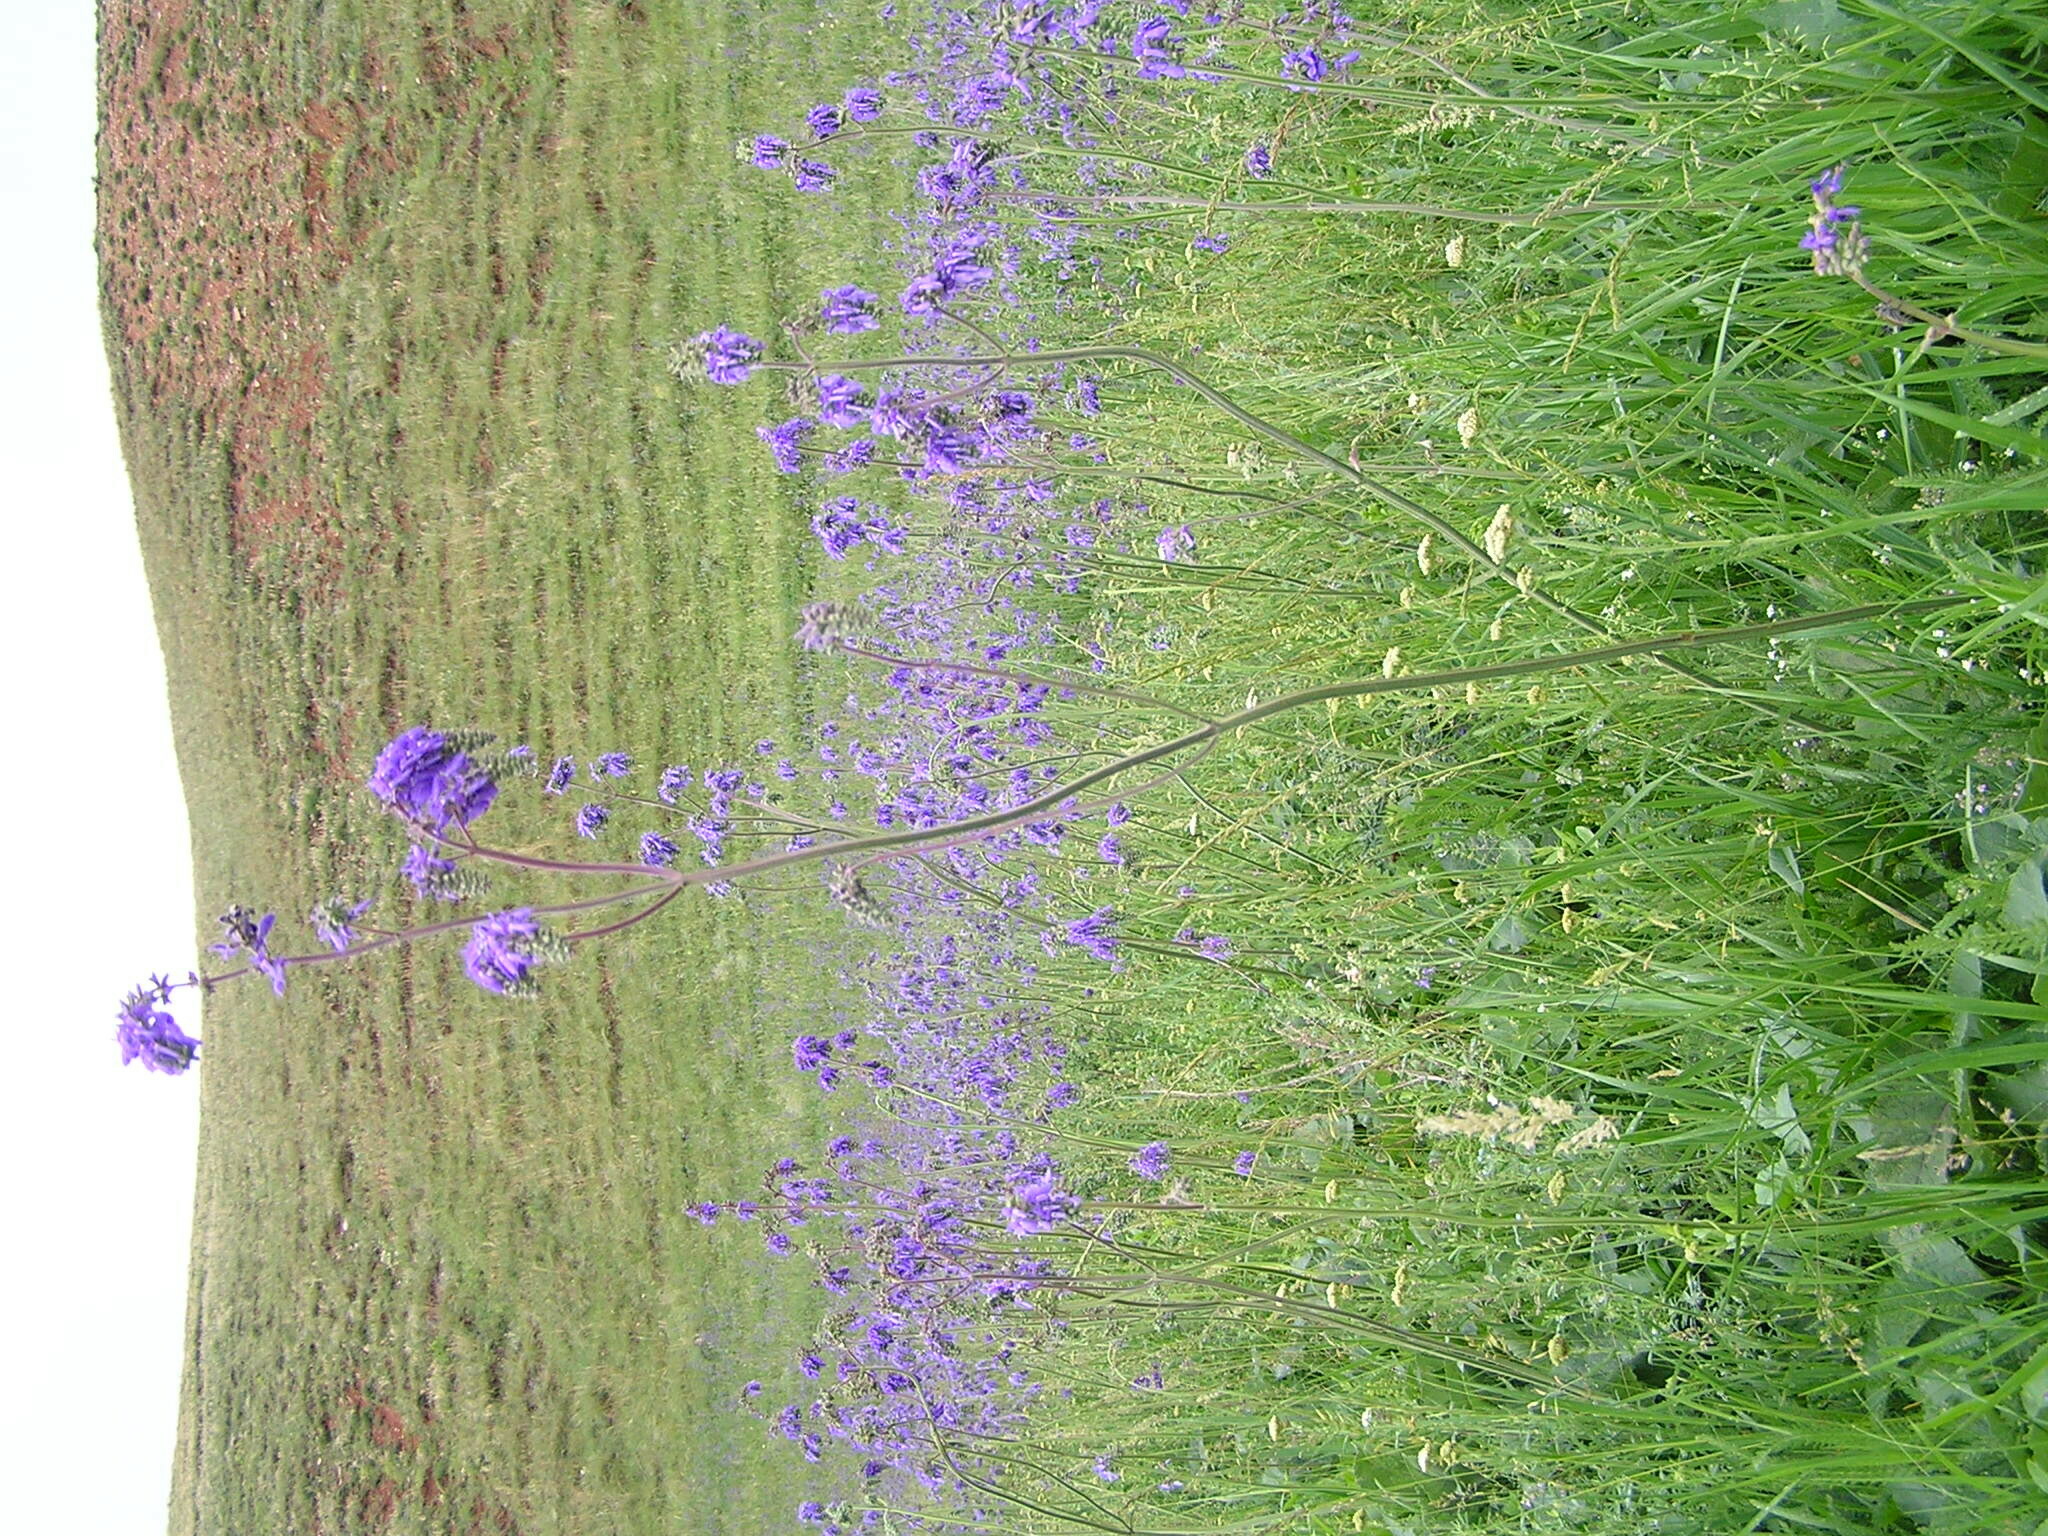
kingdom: Plantae
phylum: Tracheophyta
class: Magnoliopsida
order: Lamiales
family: Lamiaceae
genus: Salvia
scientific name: Salvia nutans
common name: Nodding sage
